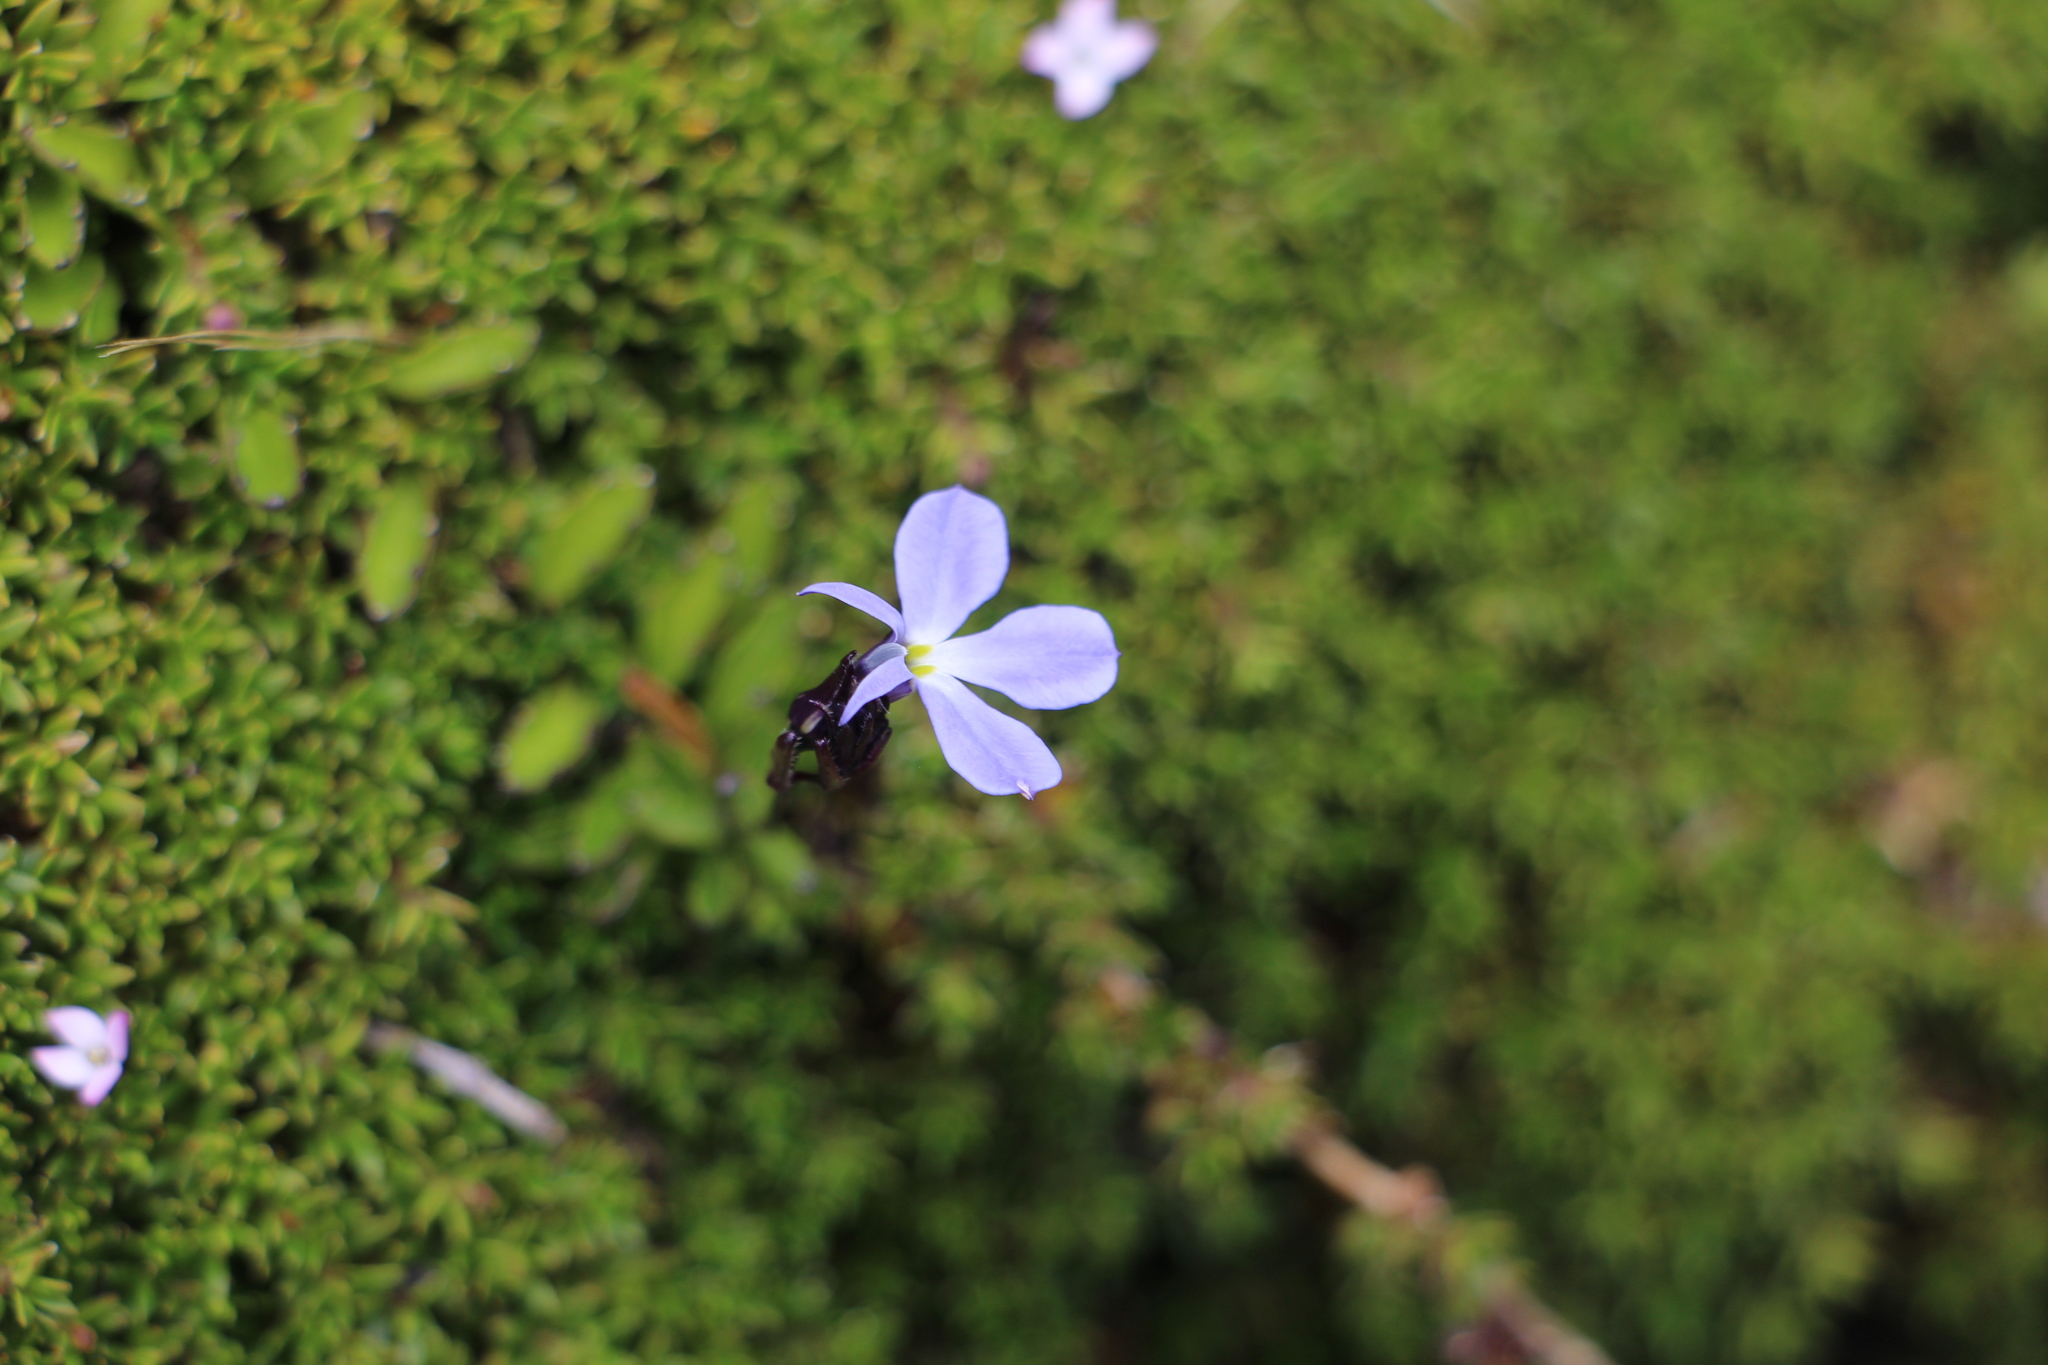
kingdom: Plantae
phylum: Tracheophyta
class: Magnoliopsida
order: Asterales
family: Campanulaceae
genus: Lobelia
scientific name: Lobelia tenera
